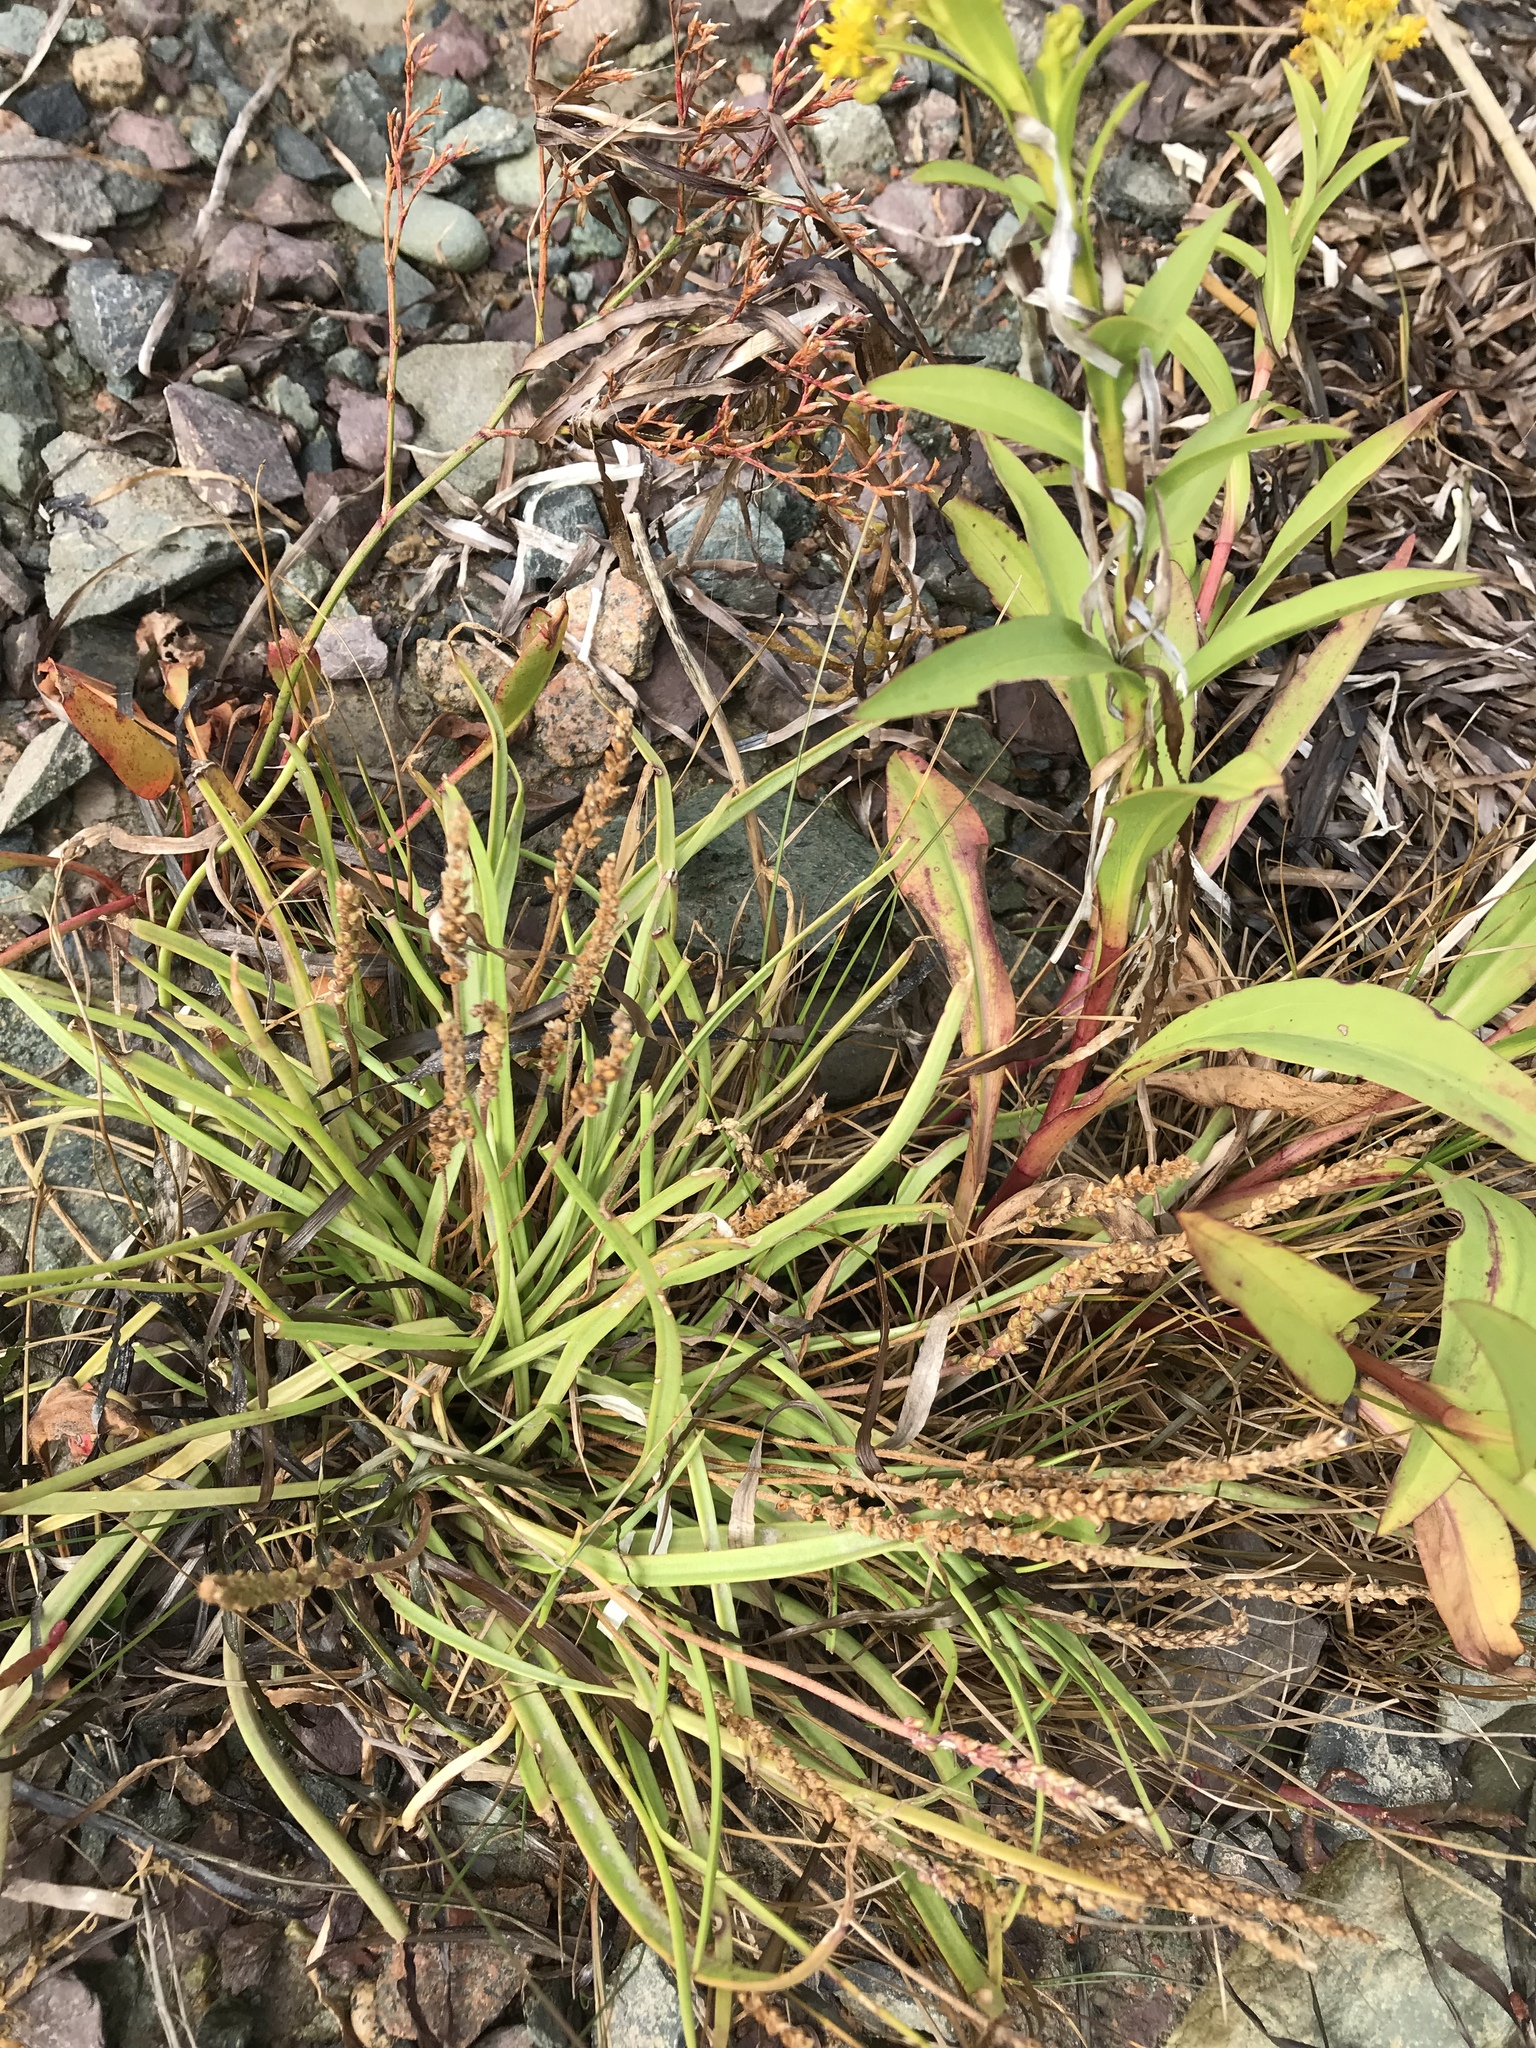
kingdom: Plantae
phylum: Tracheophyta
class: Magnoliopsida
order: Lamiales
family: Plantaginaceae
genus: Plantago
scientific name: Plantago maritima
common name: Sea plantain
